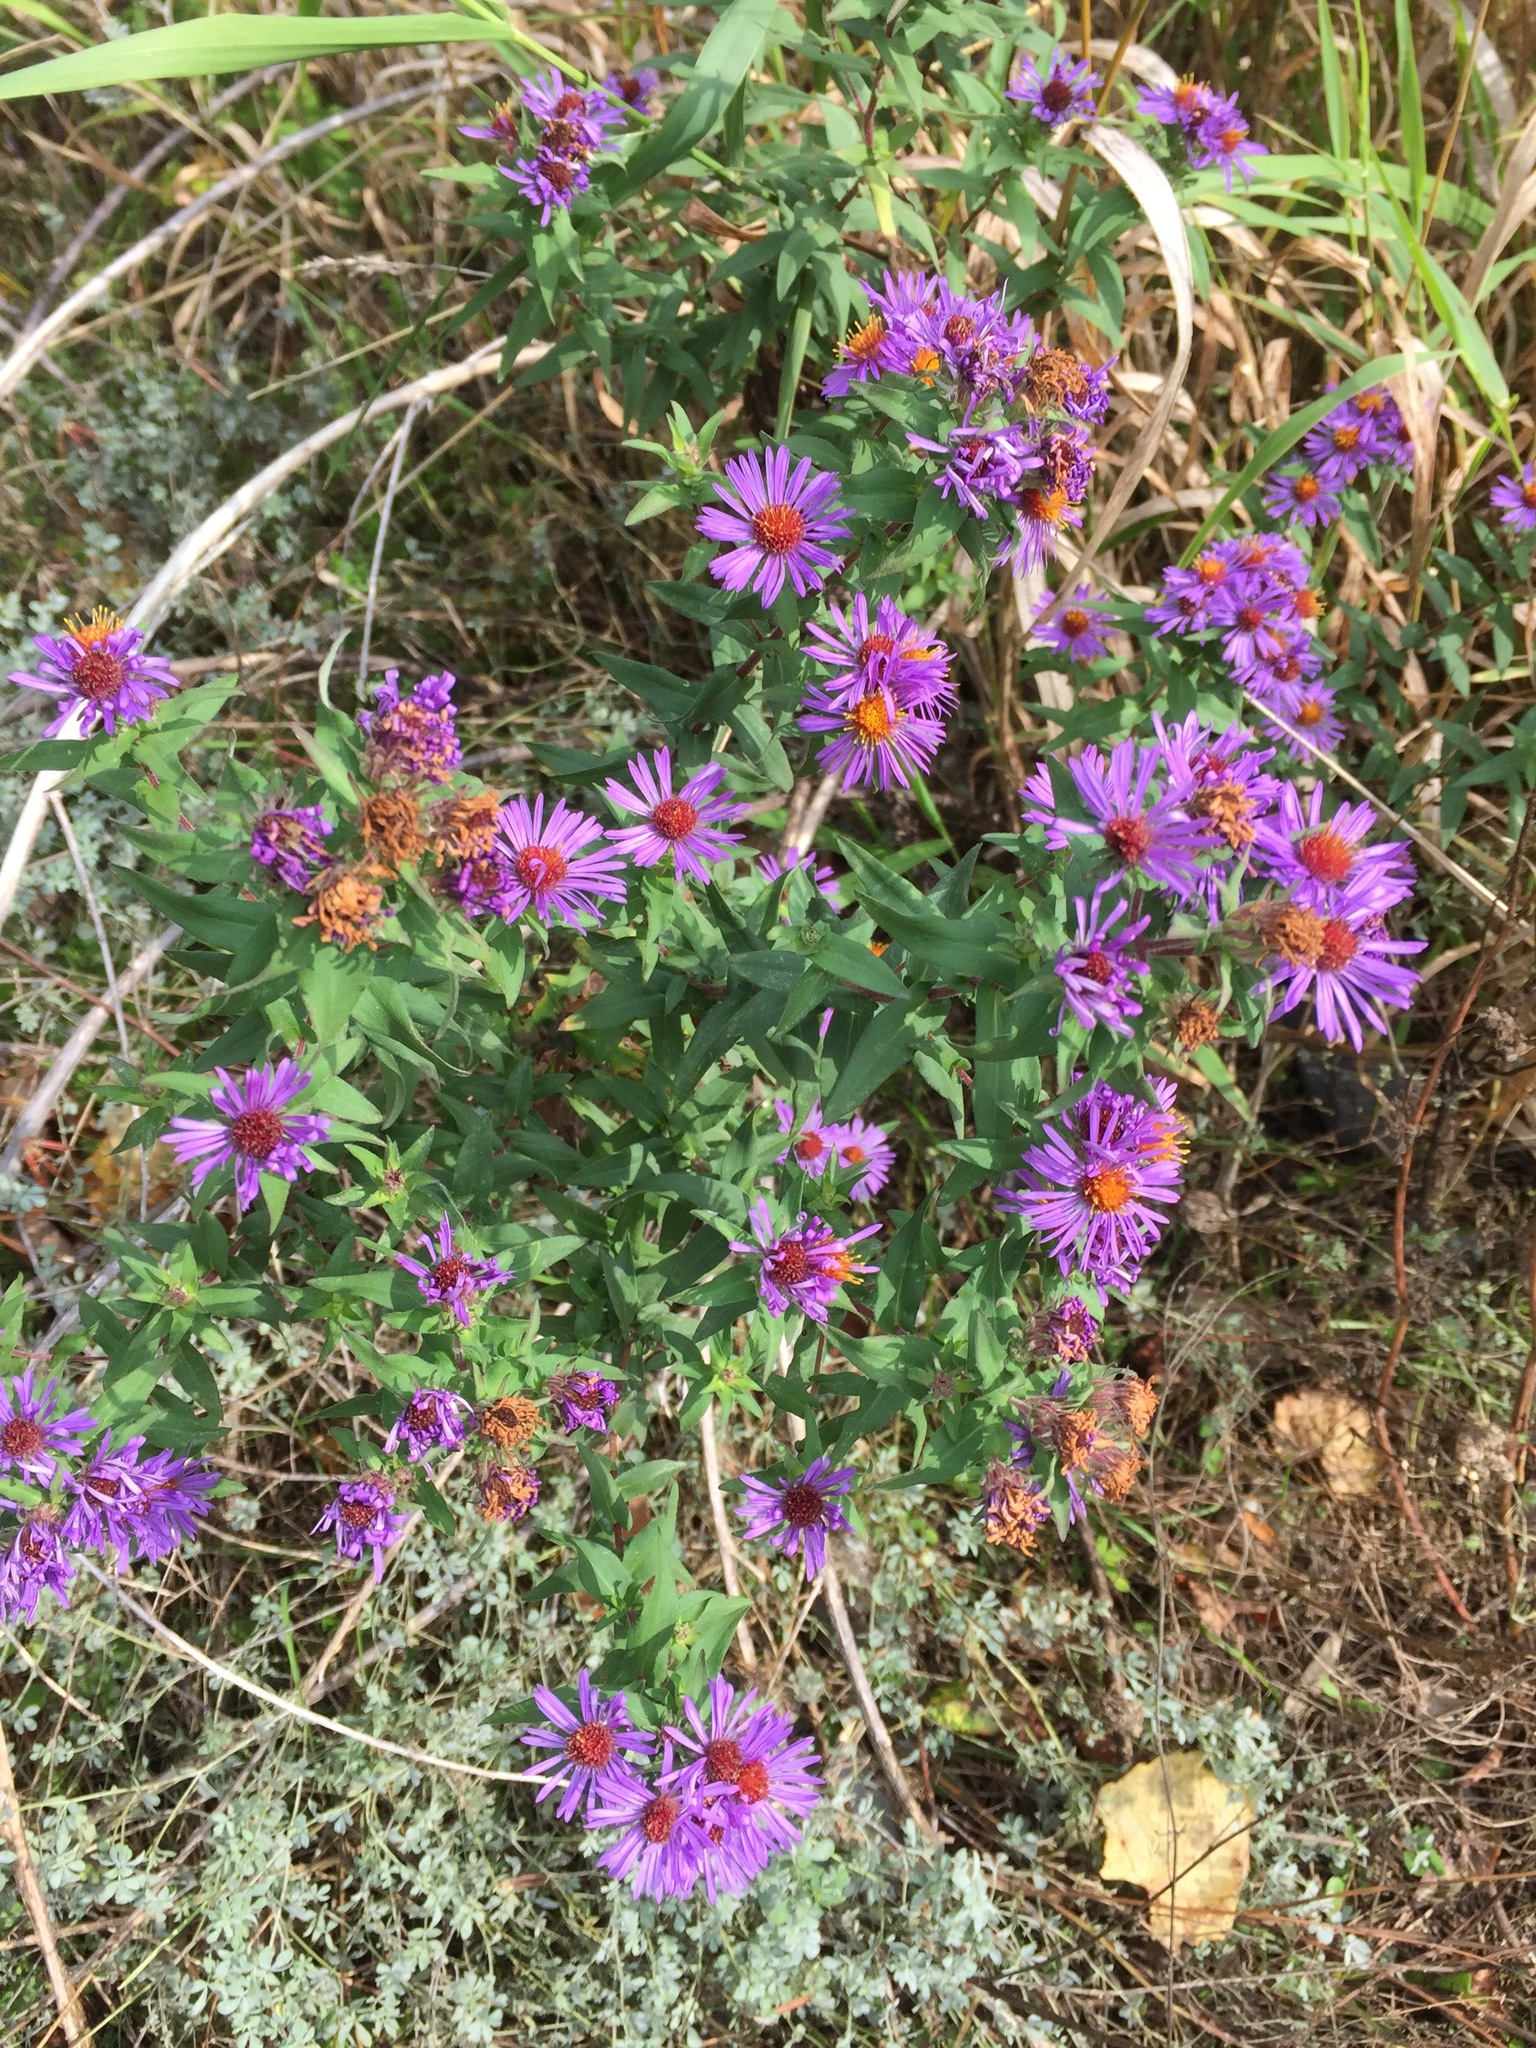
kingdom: Plantae
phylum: Tracheophyta
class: Magnoliopsida
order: Asterales
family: Asteraceae
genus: Symphyotrichum
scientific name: Symphyotrichum novae-angliae
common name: Michaelmas daisy
